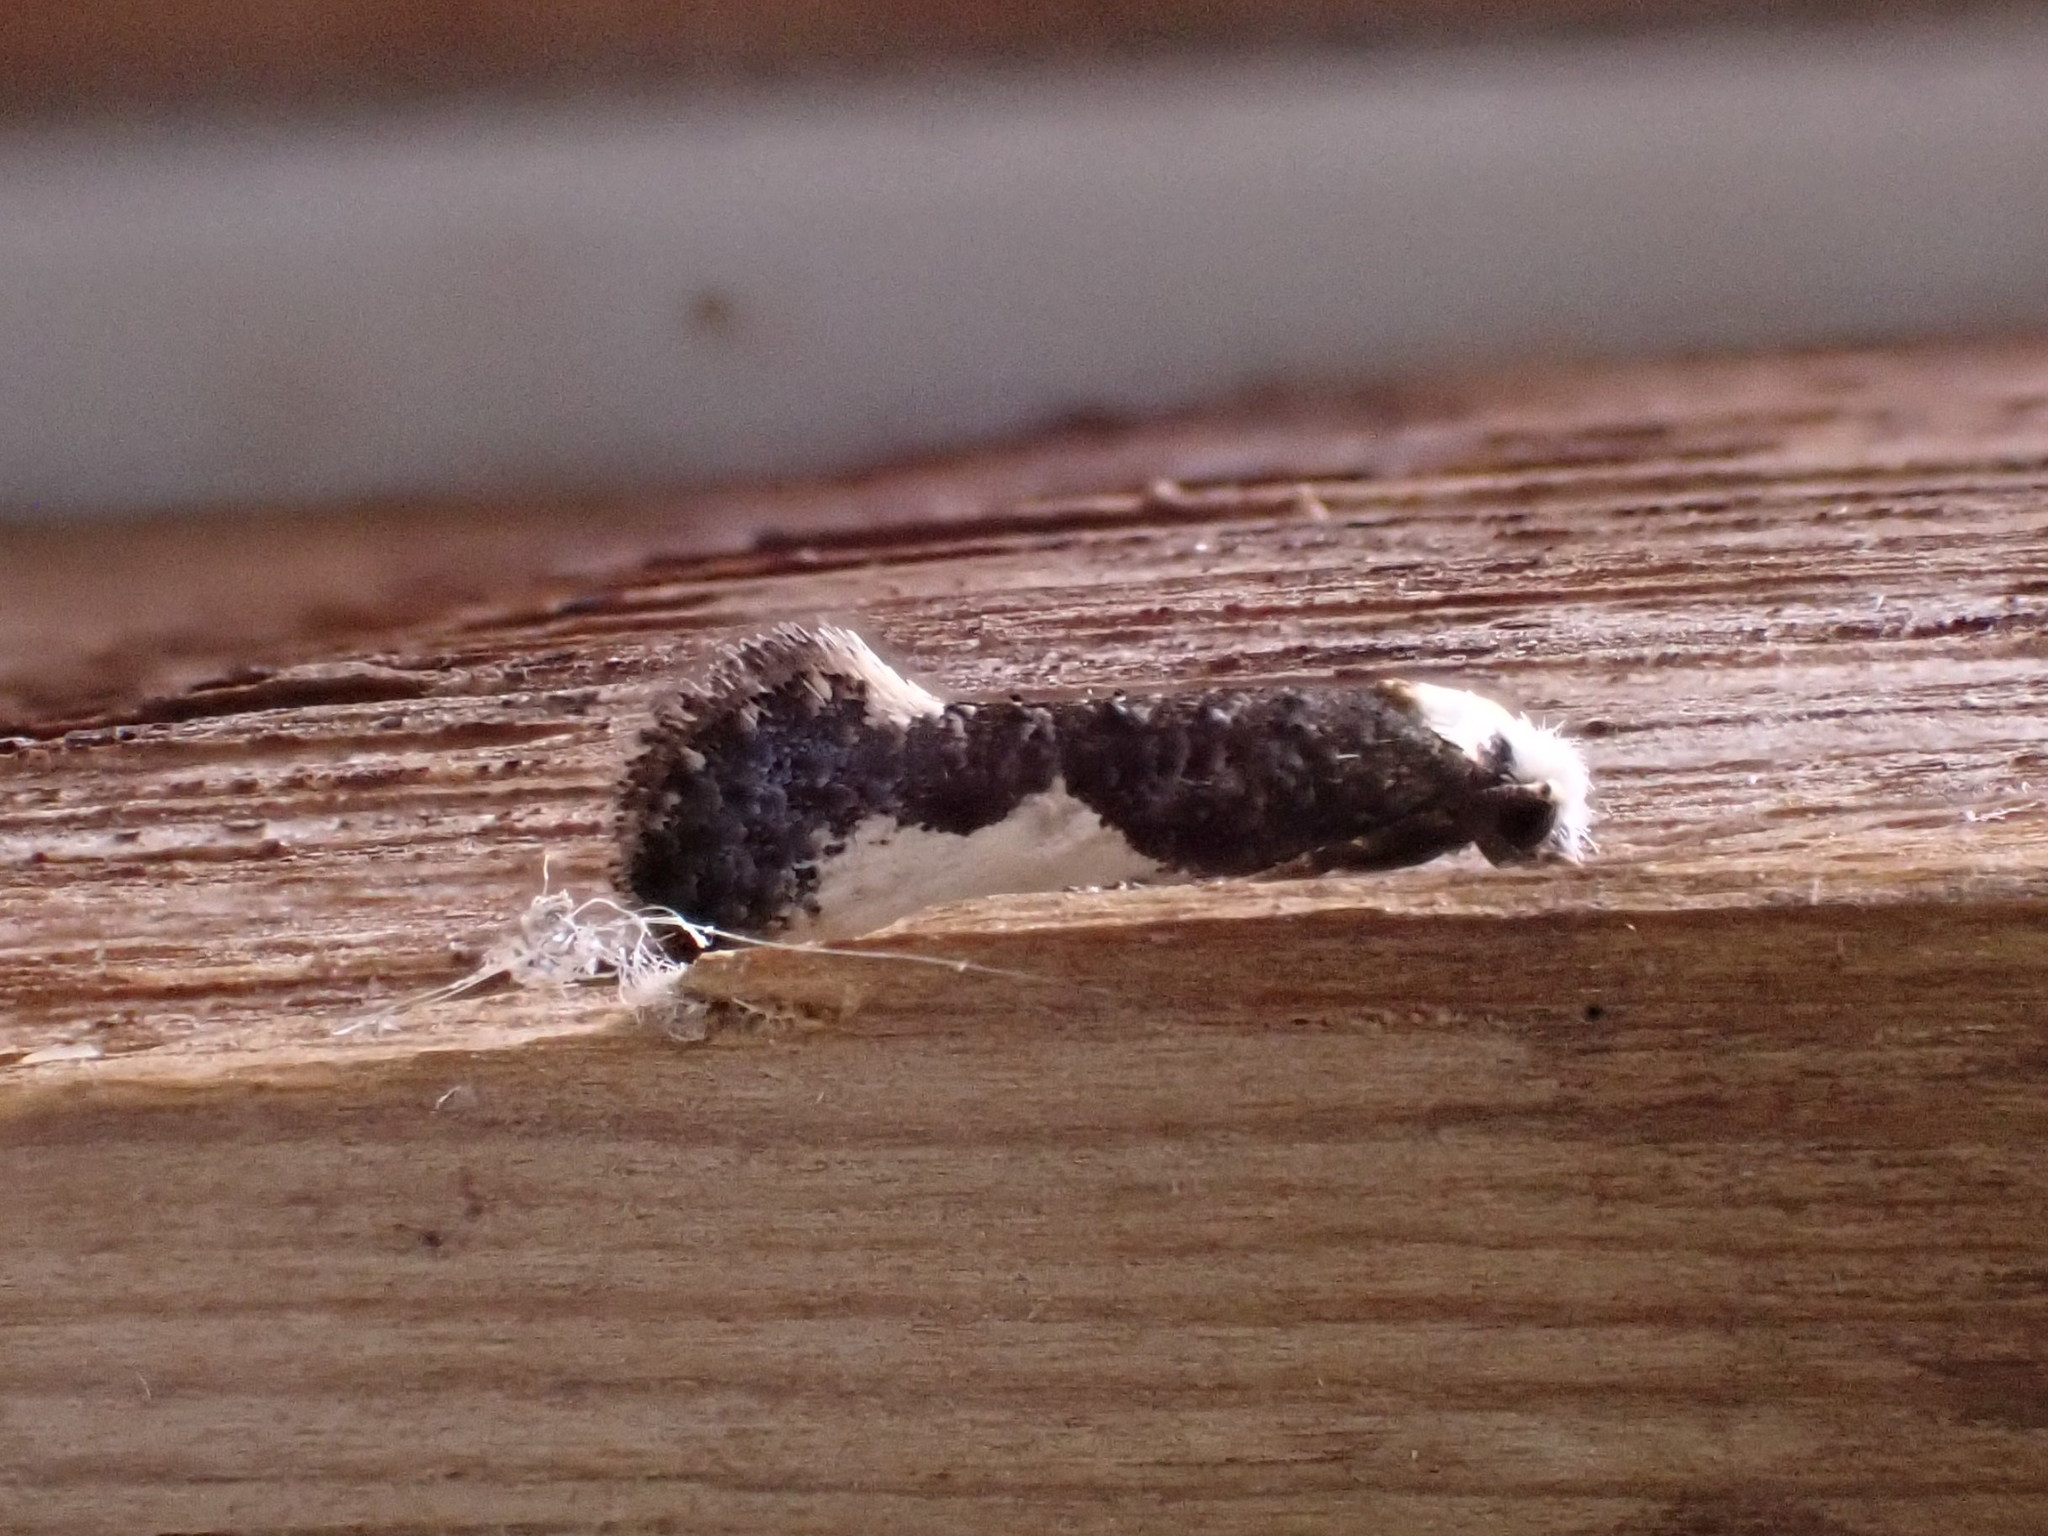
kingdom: Animalia
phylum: Arthropoda
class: Insecta
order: Lepidoptera
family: Tineidae
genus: Monopis
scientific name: Monopis monachella
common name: Moth
